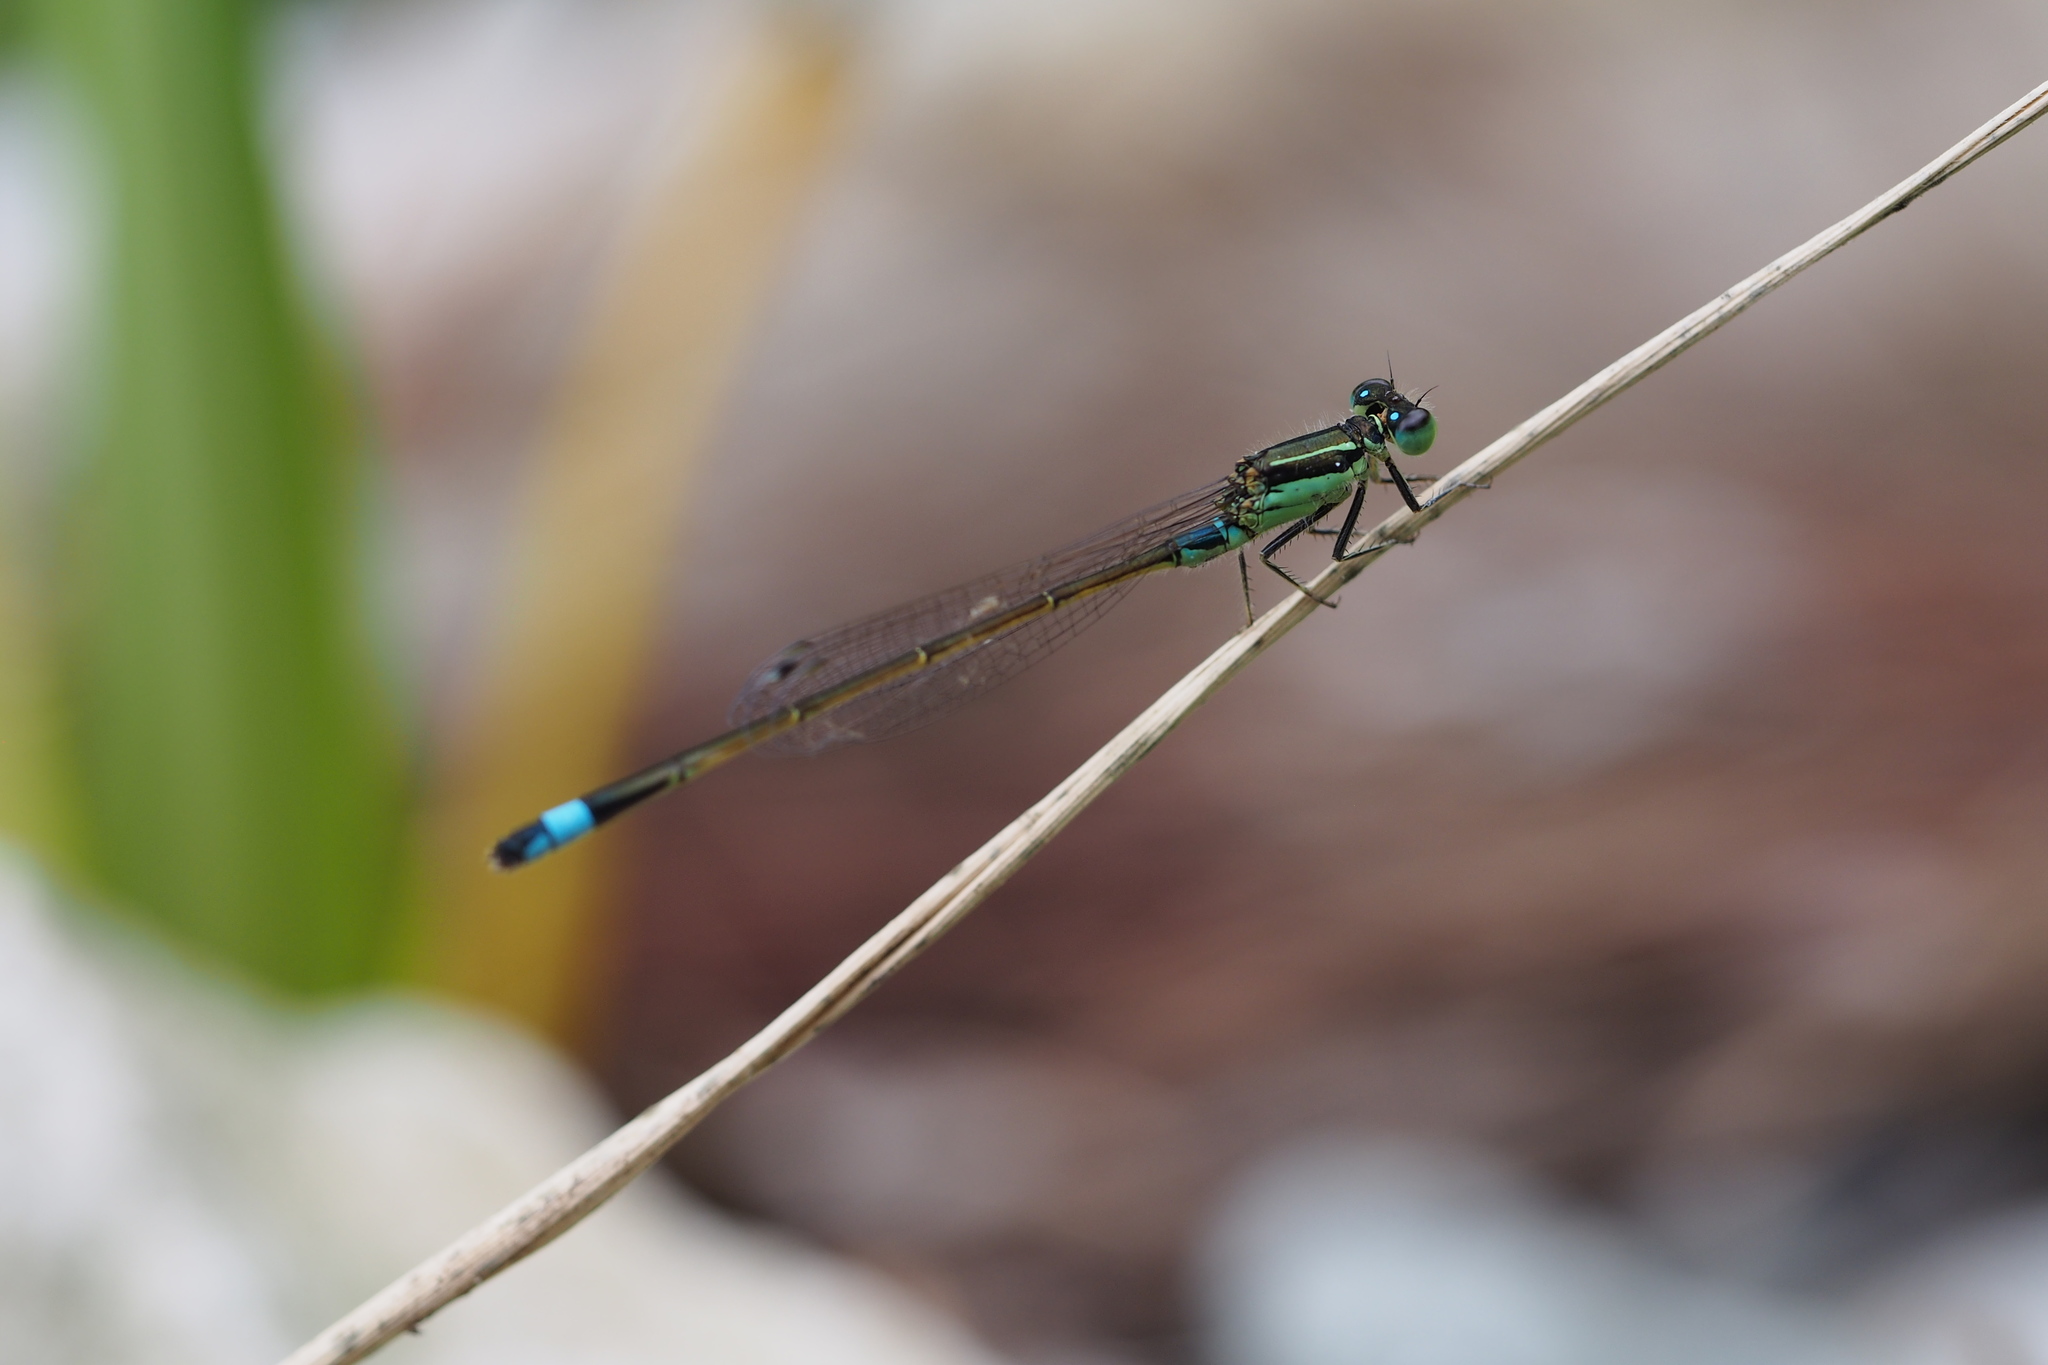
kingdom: Animalia
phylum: Arthropoda
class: Insecta
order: Odonata
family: Coenagrionidae
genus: Ischnura
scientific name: Ischnura senegalensis
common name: Tropical bluetail
